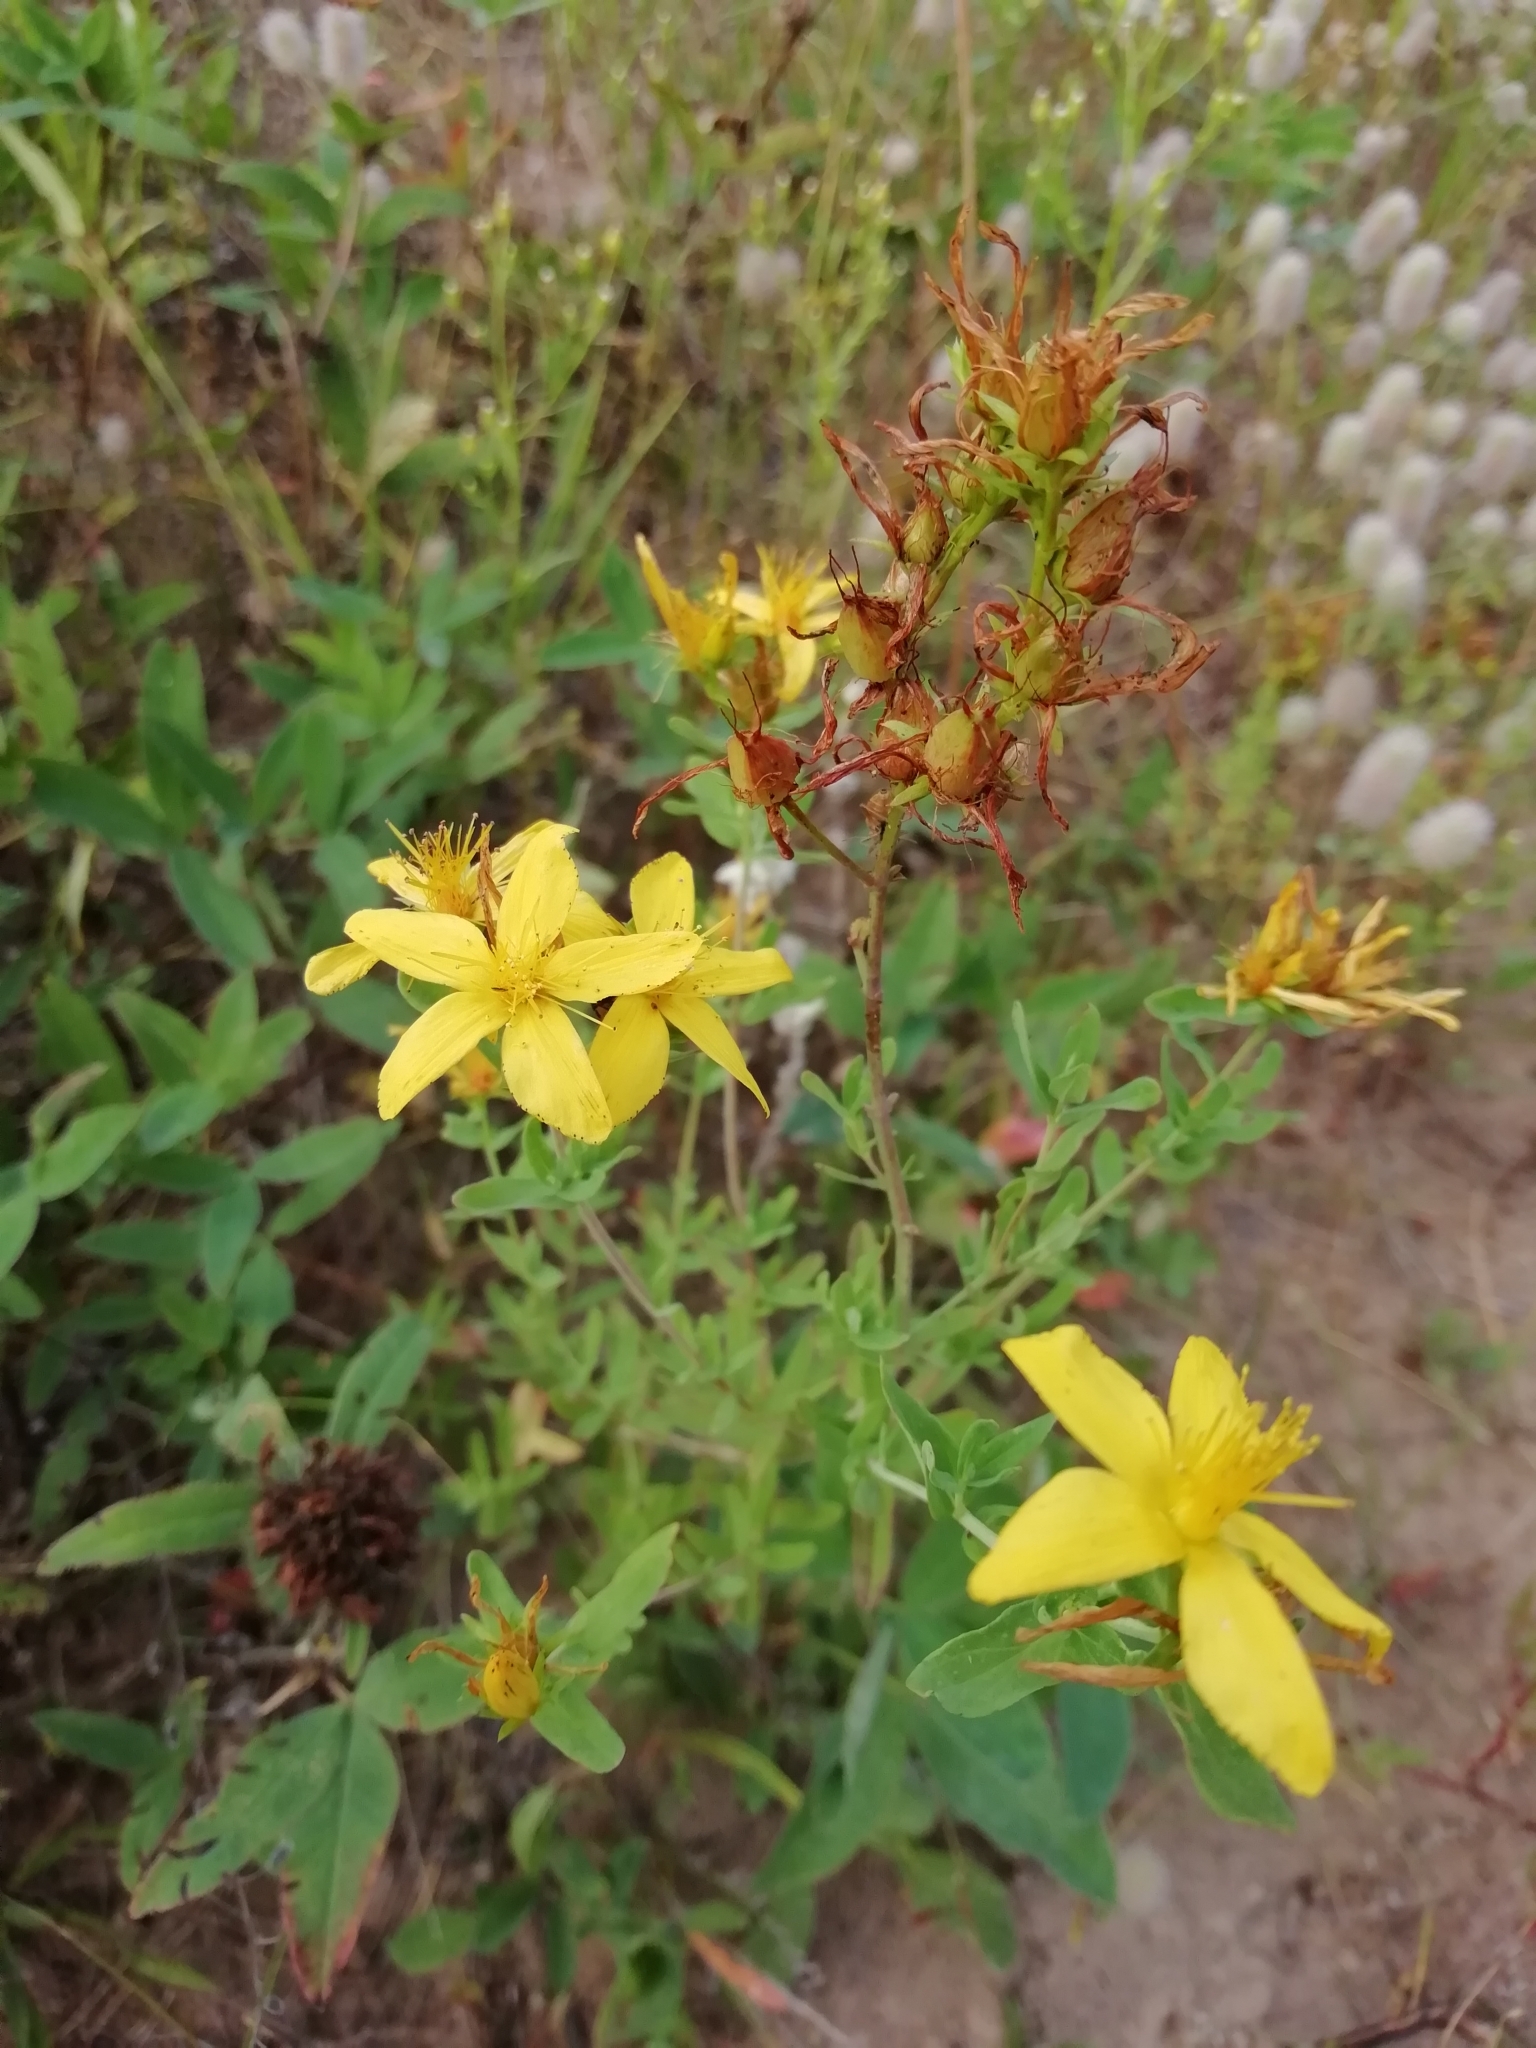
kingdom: Plantae
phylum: Tracheophyta
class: Magnoliopsida
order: Malpighiales
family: Hypericaceae
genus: Hypericum
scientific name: Hypericum perforatum
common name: Common st. johnswort
